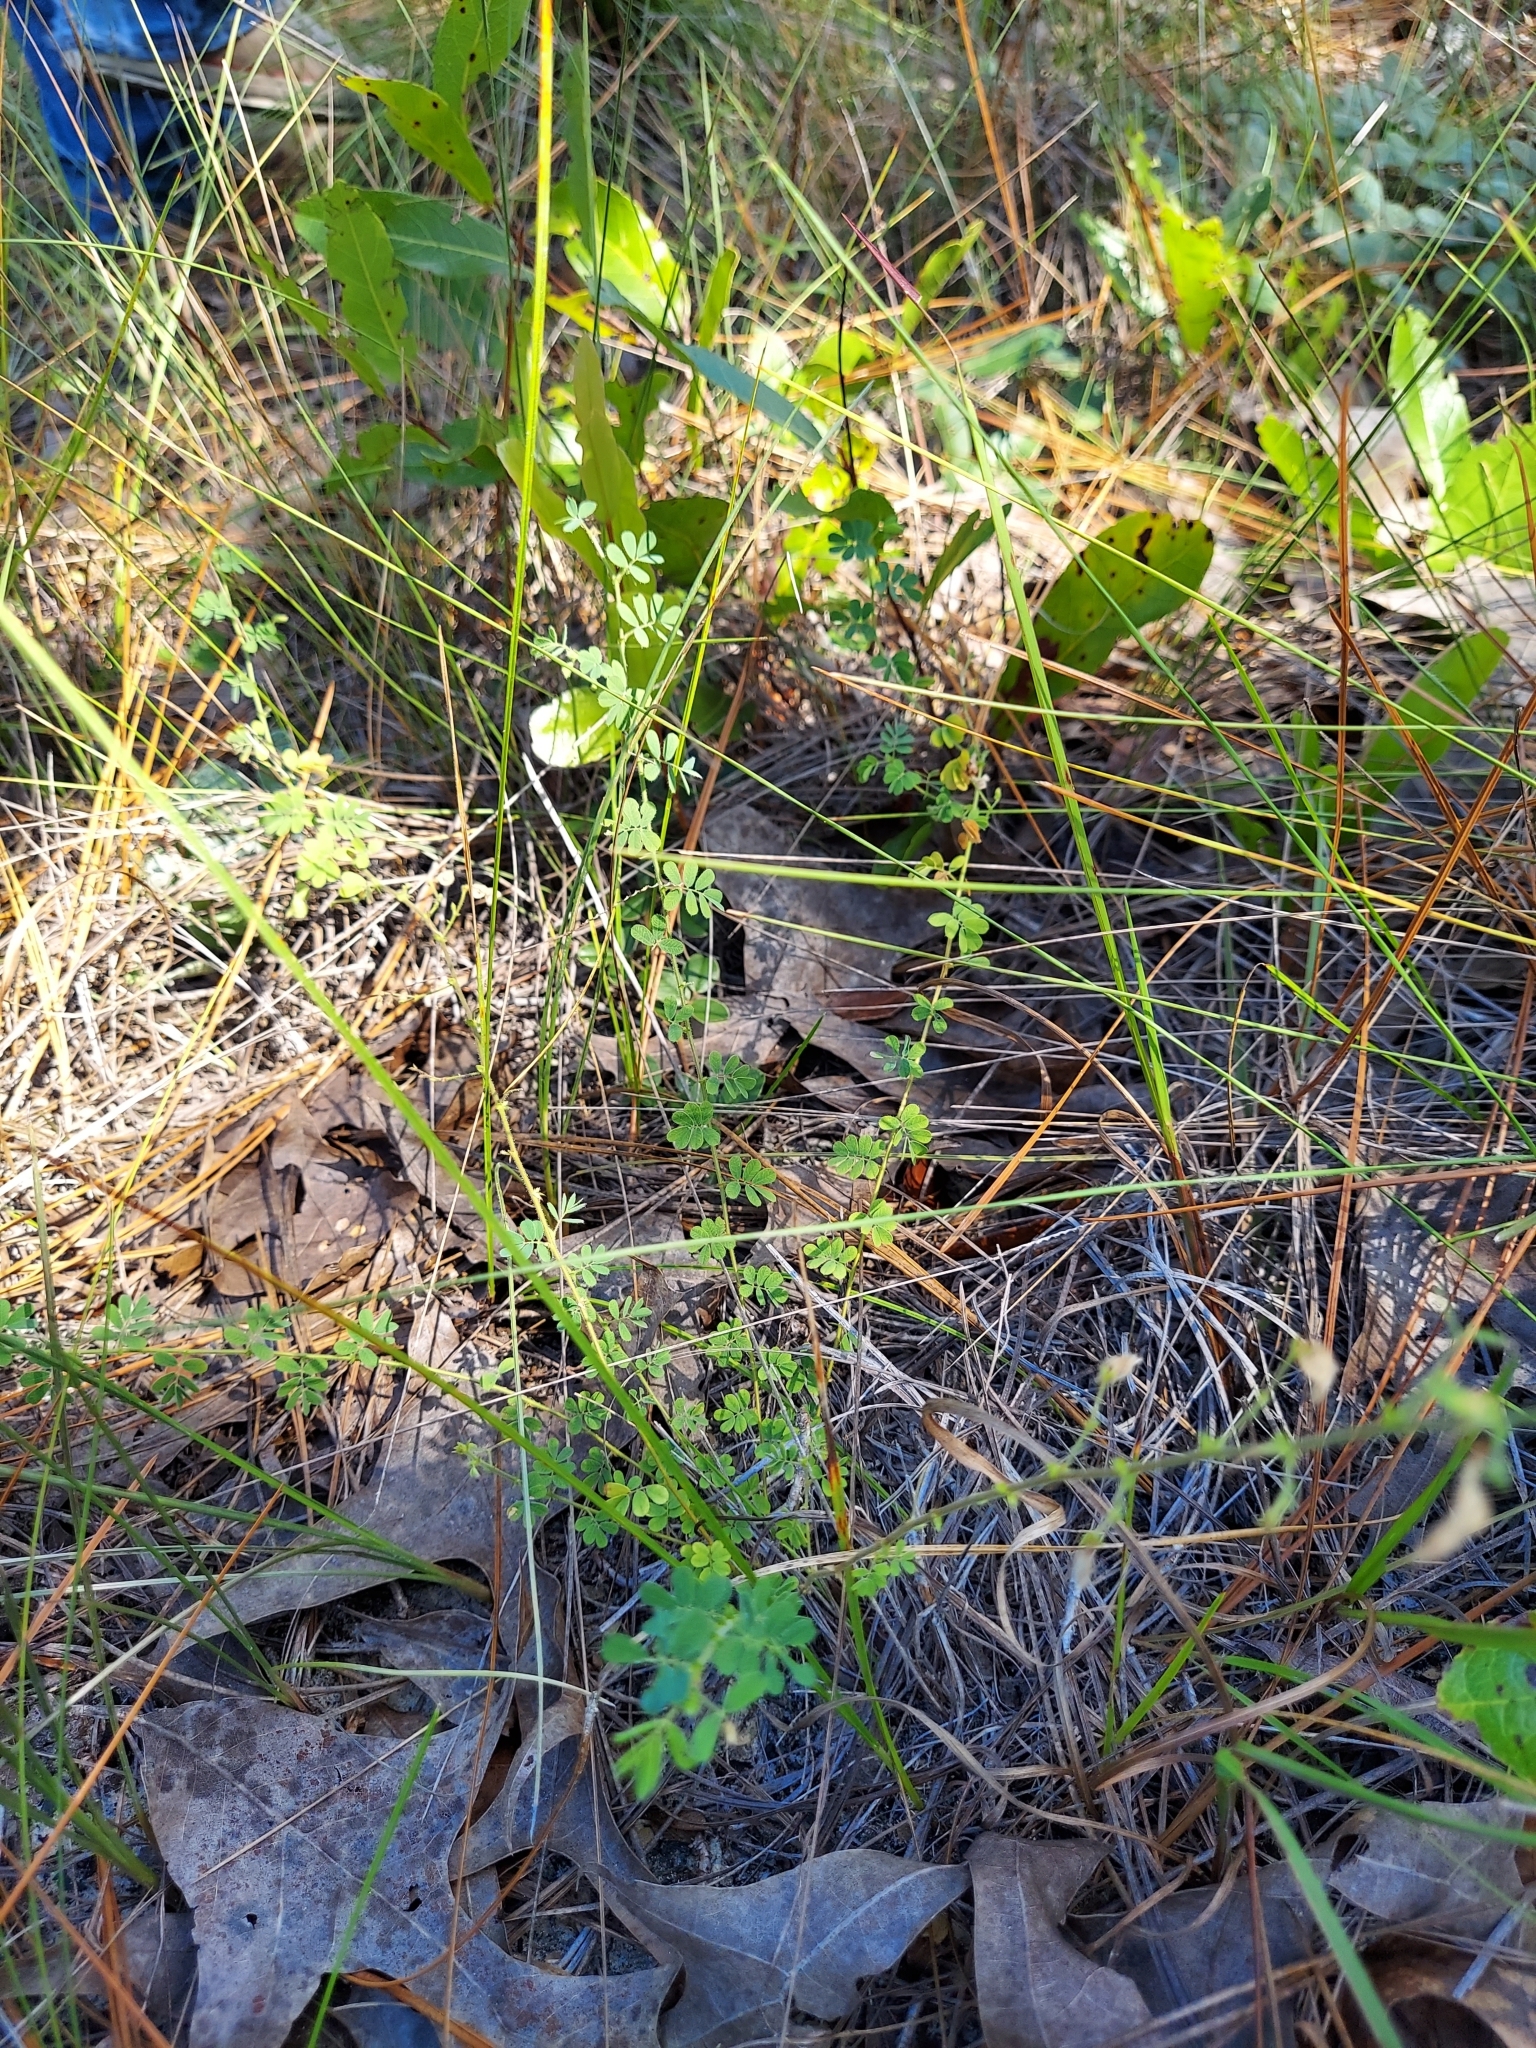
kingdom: Plantae
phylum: Tracheophyta
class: Magnoliopsida
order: Fabales
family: Fabaceae
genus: Ctenodon
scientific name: Ctenodon viscidulus
